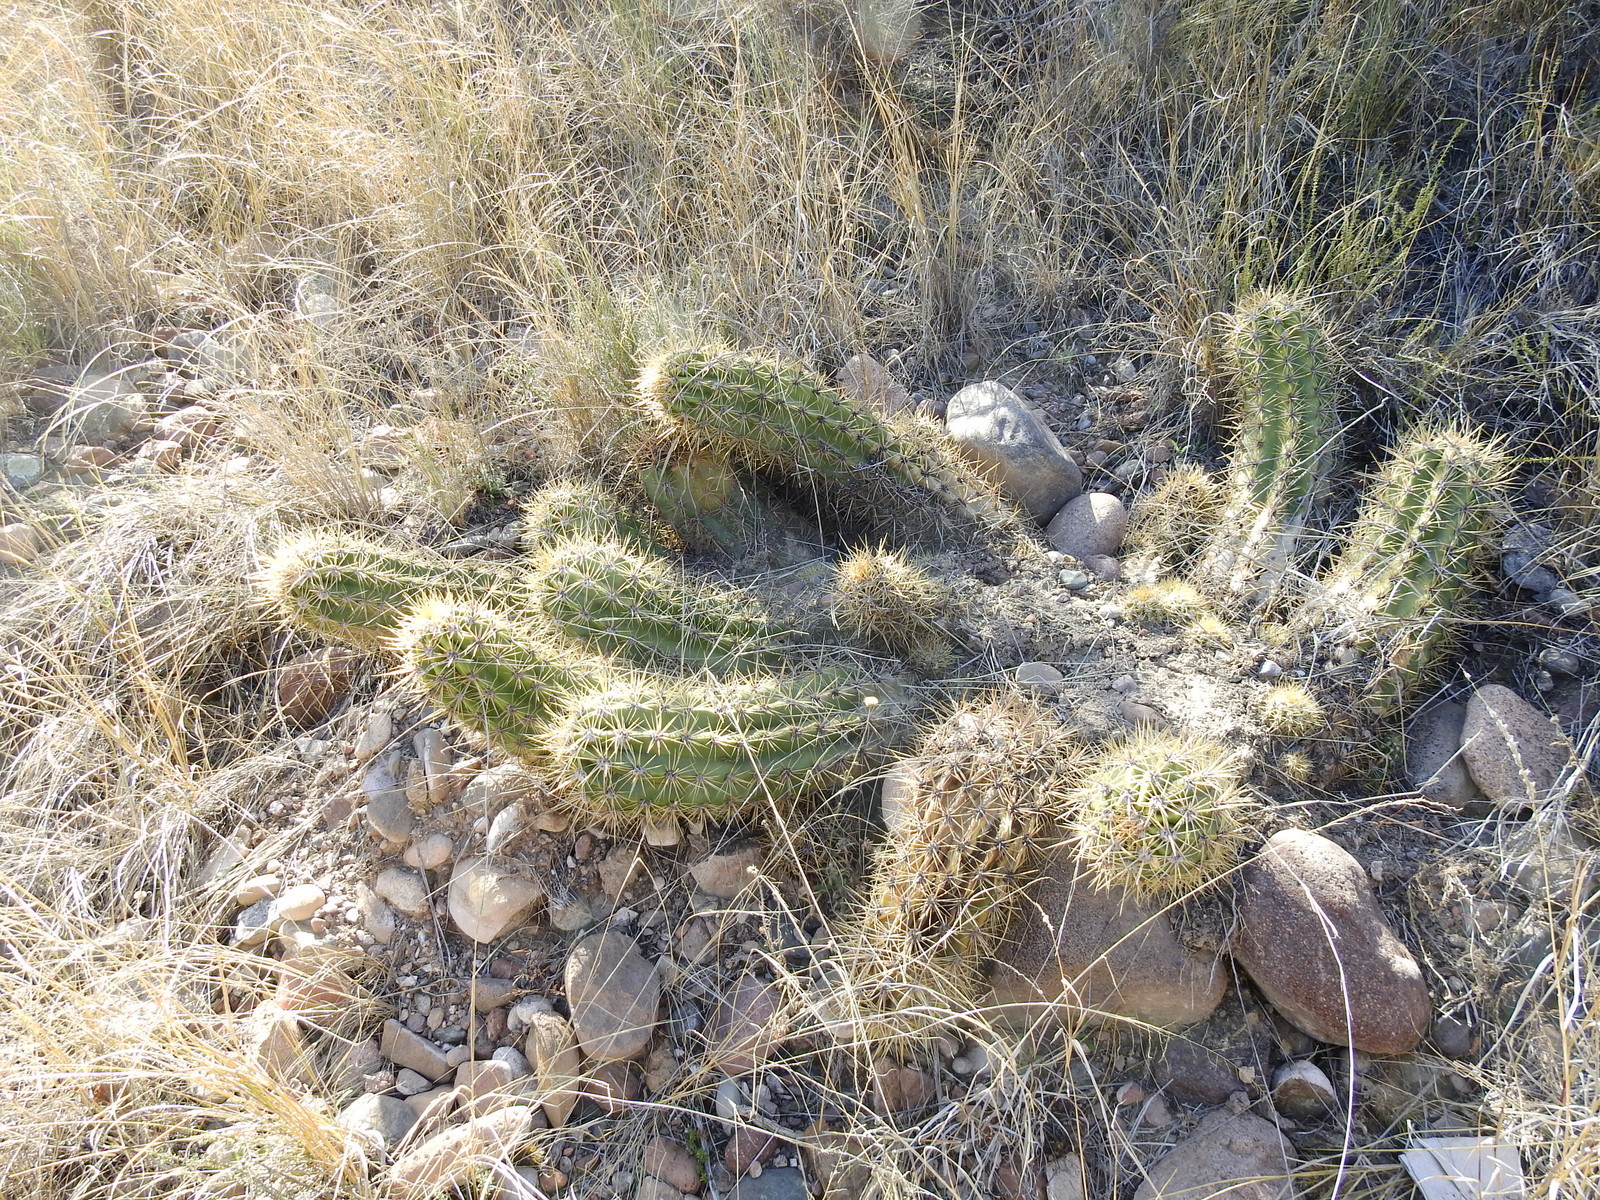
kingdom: Plantae
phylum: Tracheophyta
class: Magnoliopsida
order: Caryophyllales
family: Cactaceae
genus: Soehrensia
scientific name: Soehrensia candicans
